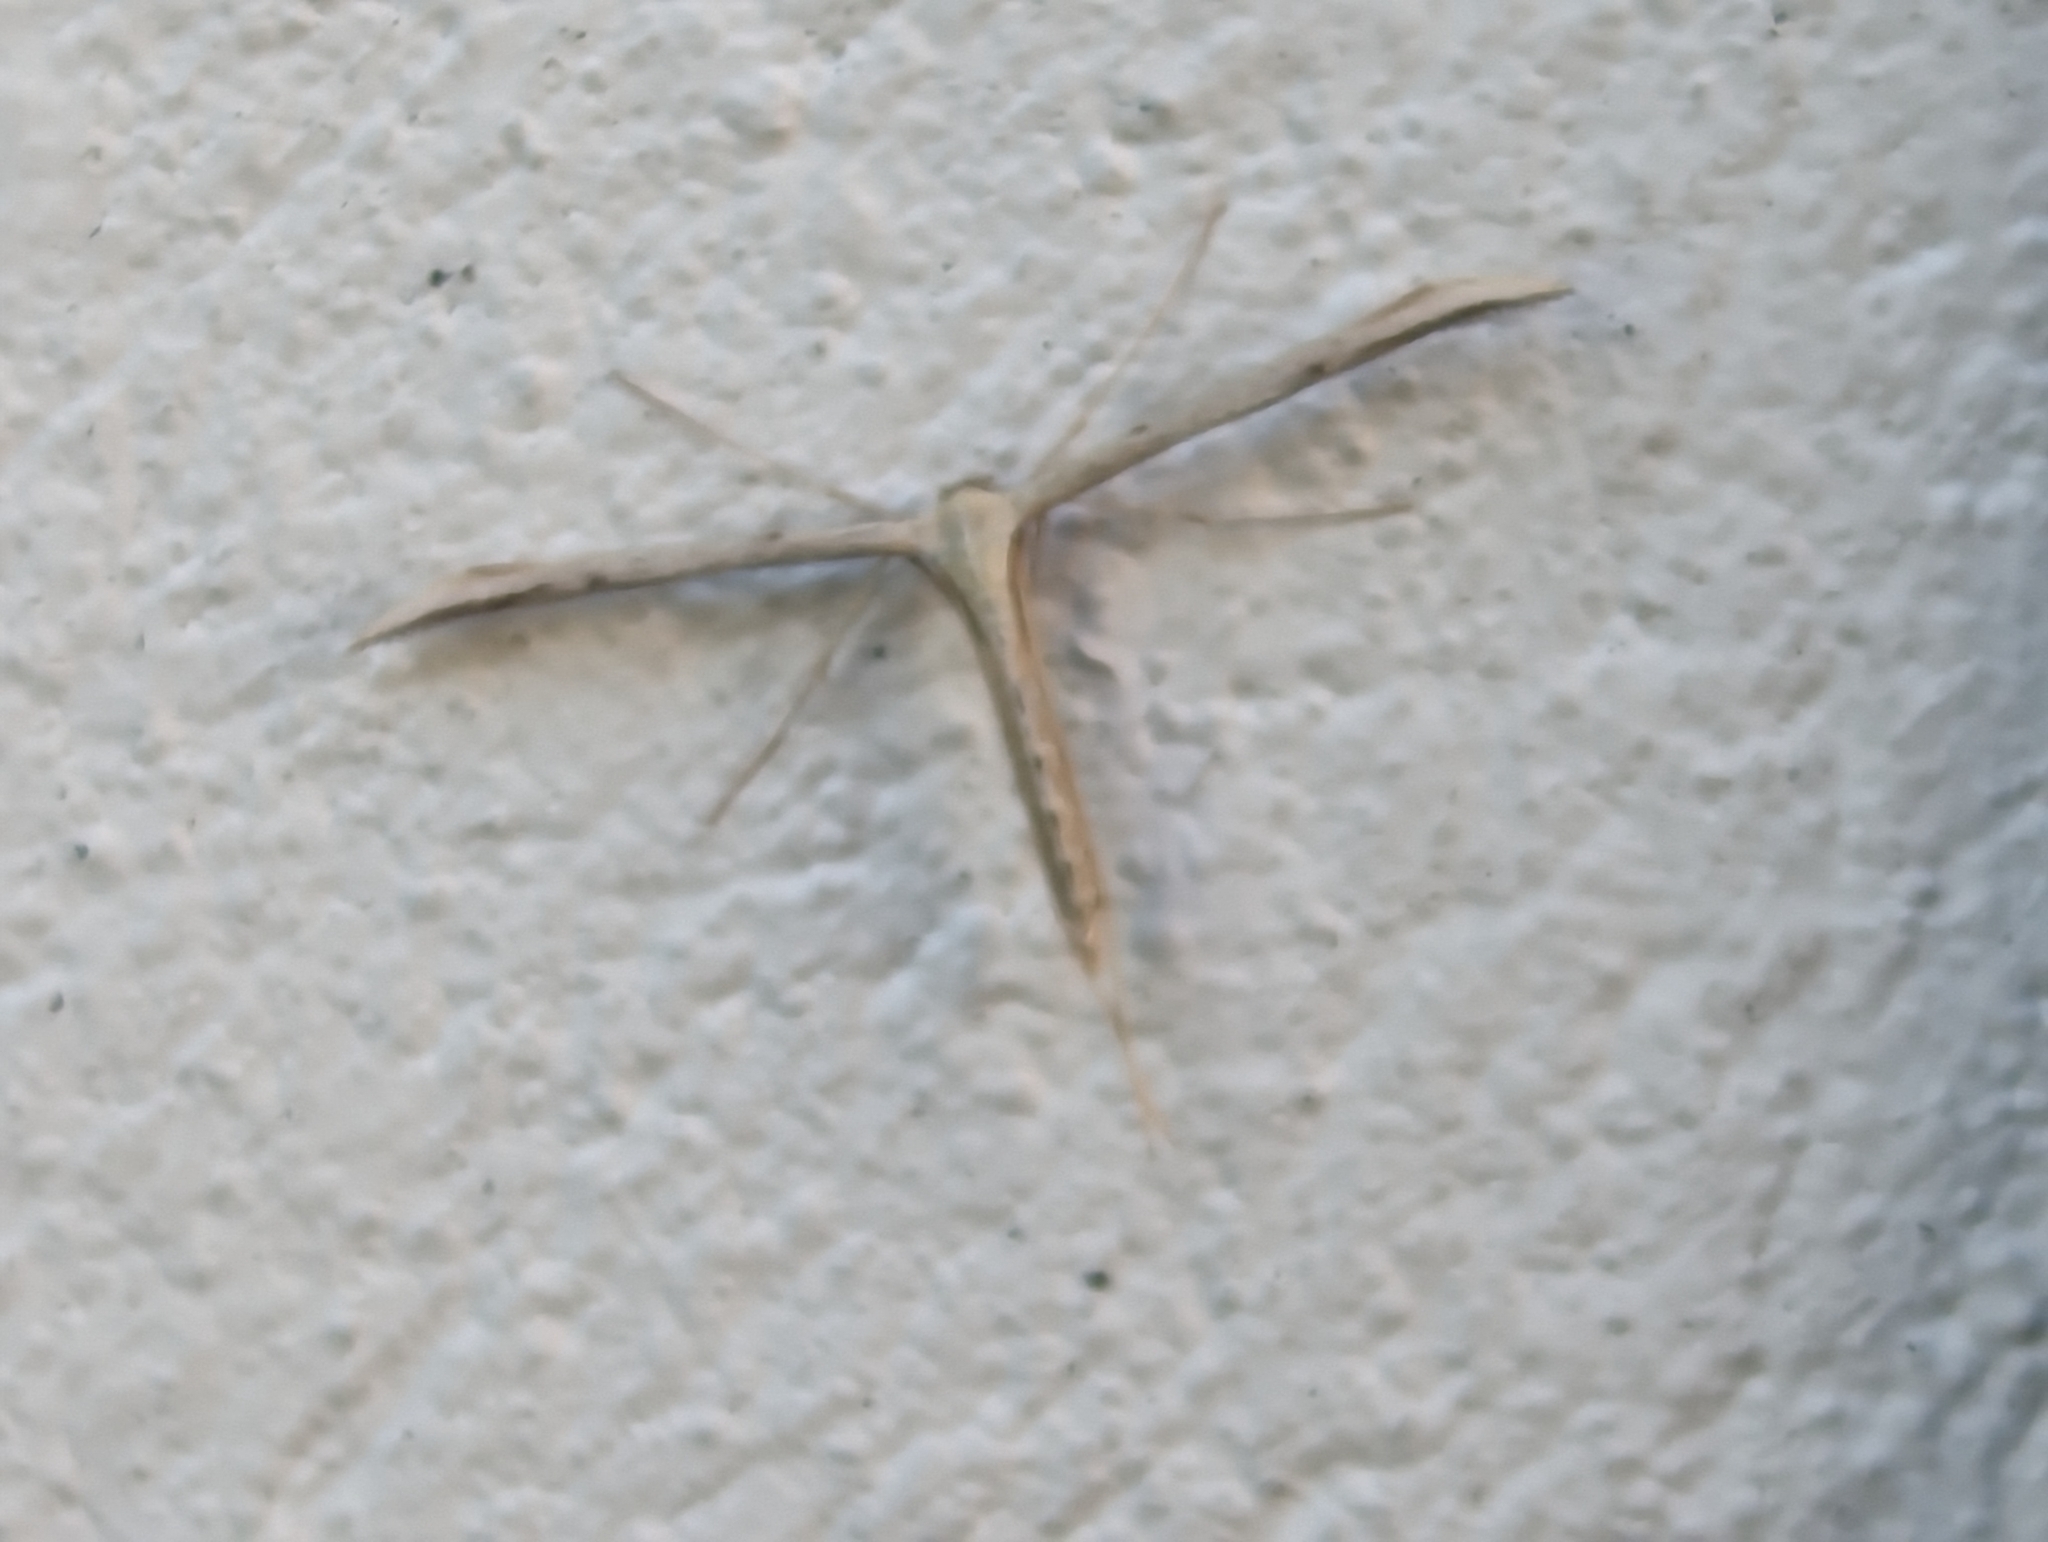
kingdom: Animalia
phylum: Arthropoda
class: Insecta
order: Lepidoptera
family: Pterophoridae
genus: Emmelina
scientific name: Emmelina monodactyla
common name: Common plume
